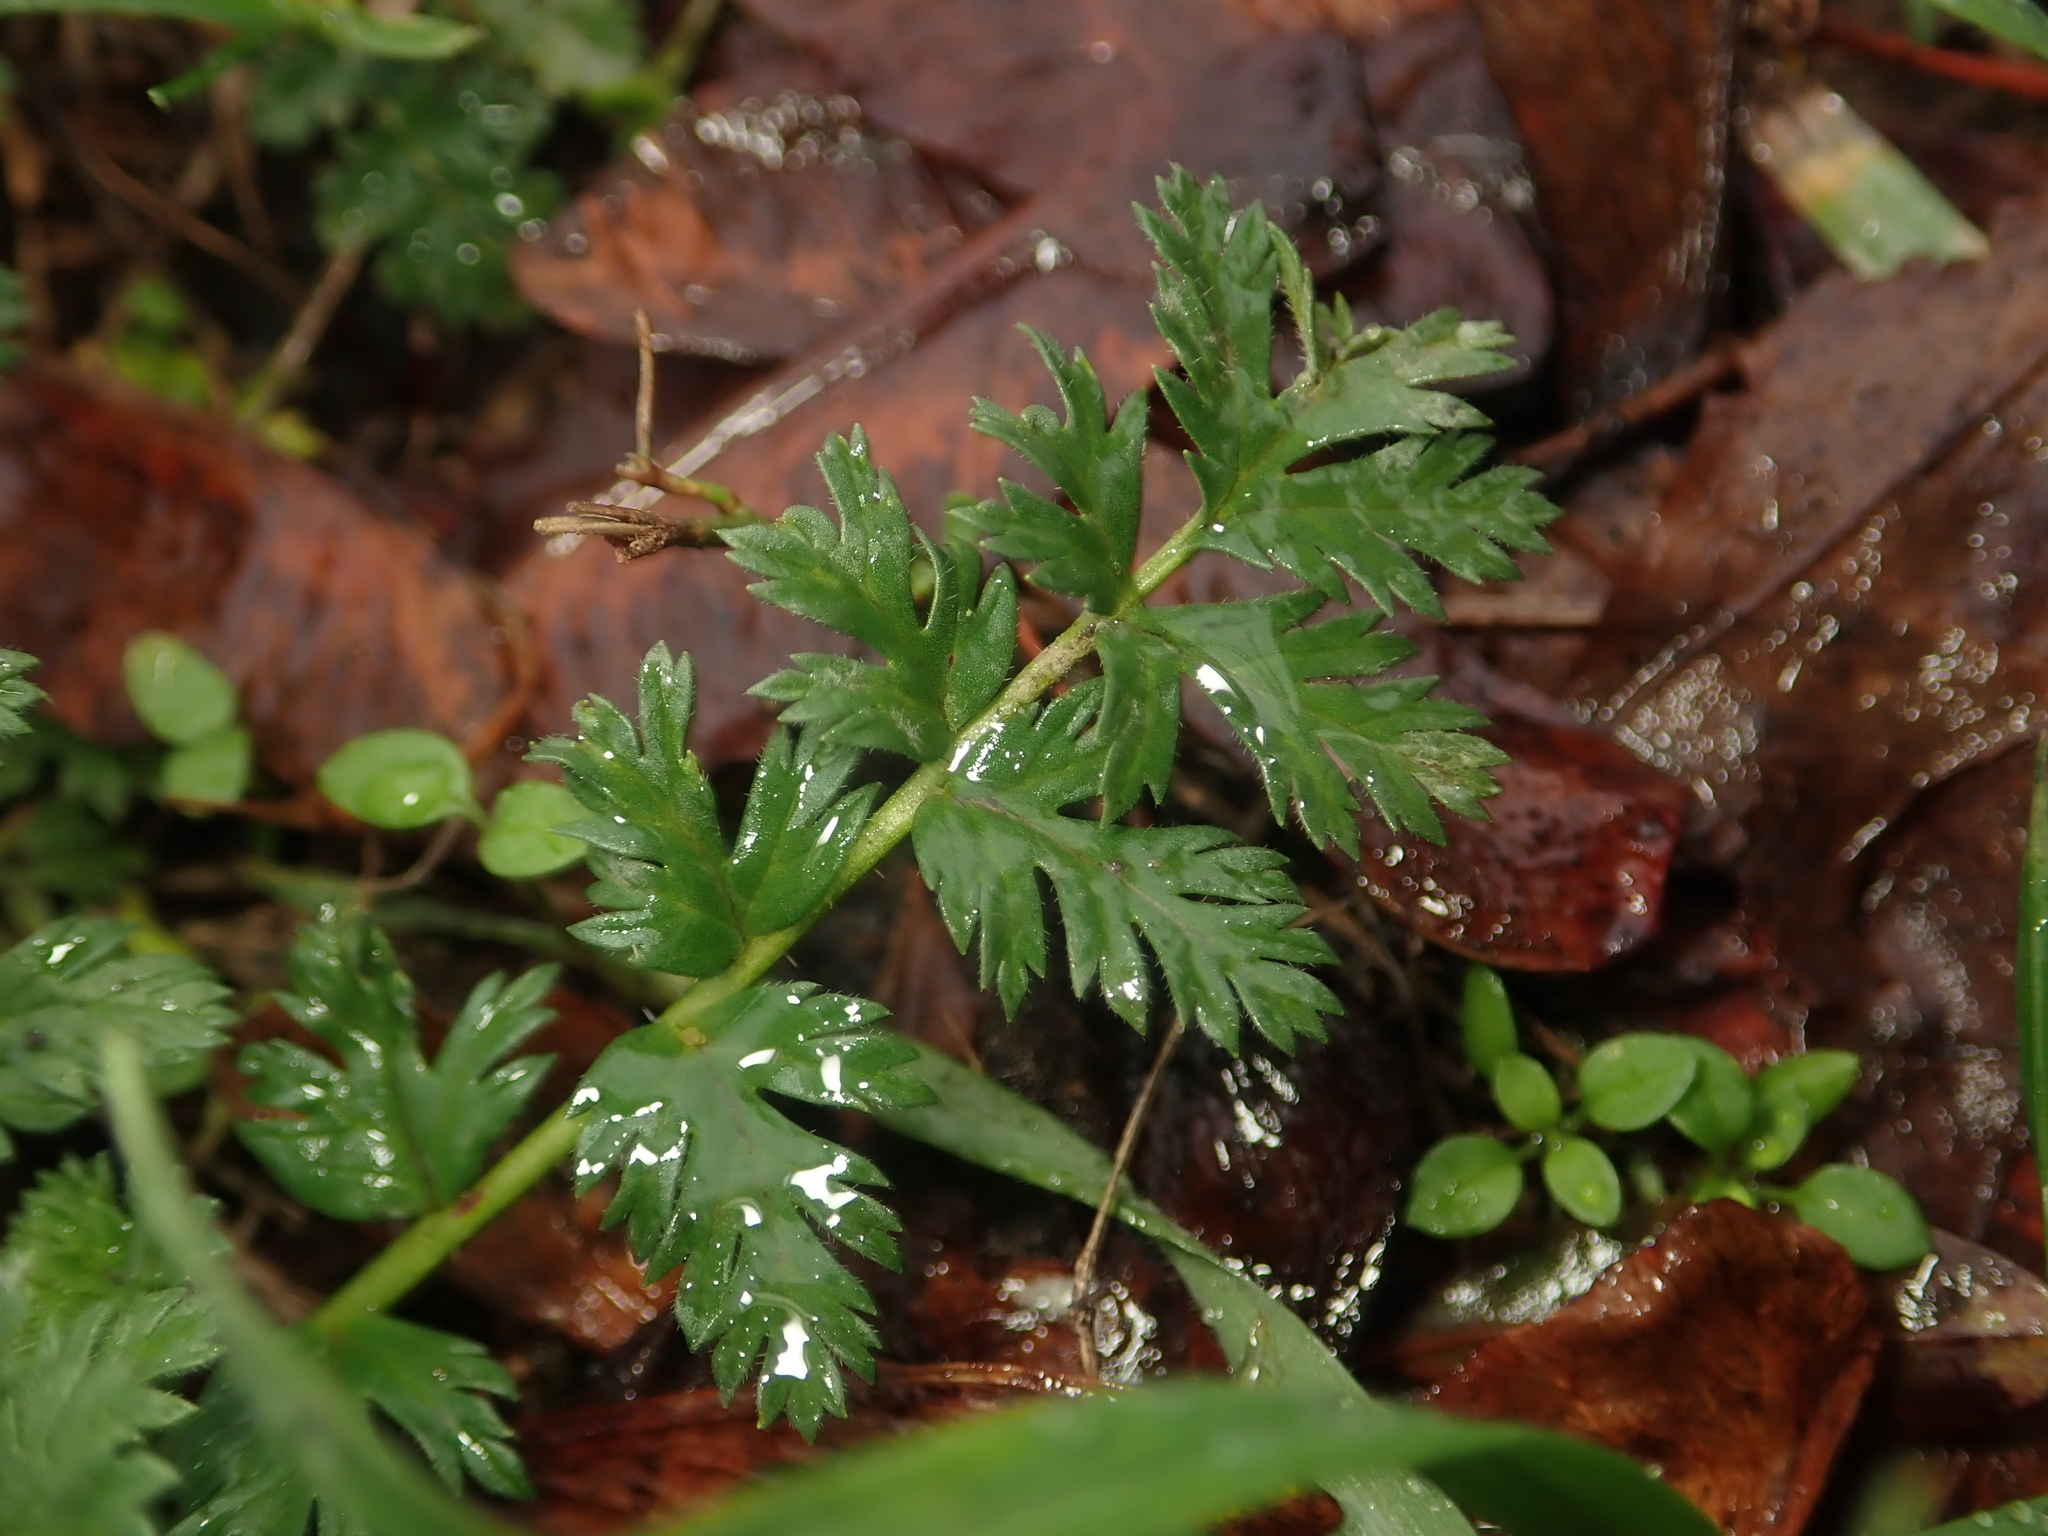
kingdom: Plantae
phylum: Tracheophyta
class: Magnoliopsida
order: Geraniales
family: Geraniaceae
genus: Erodium
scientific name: Erodium cicutarium
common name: Common stork's-bill
